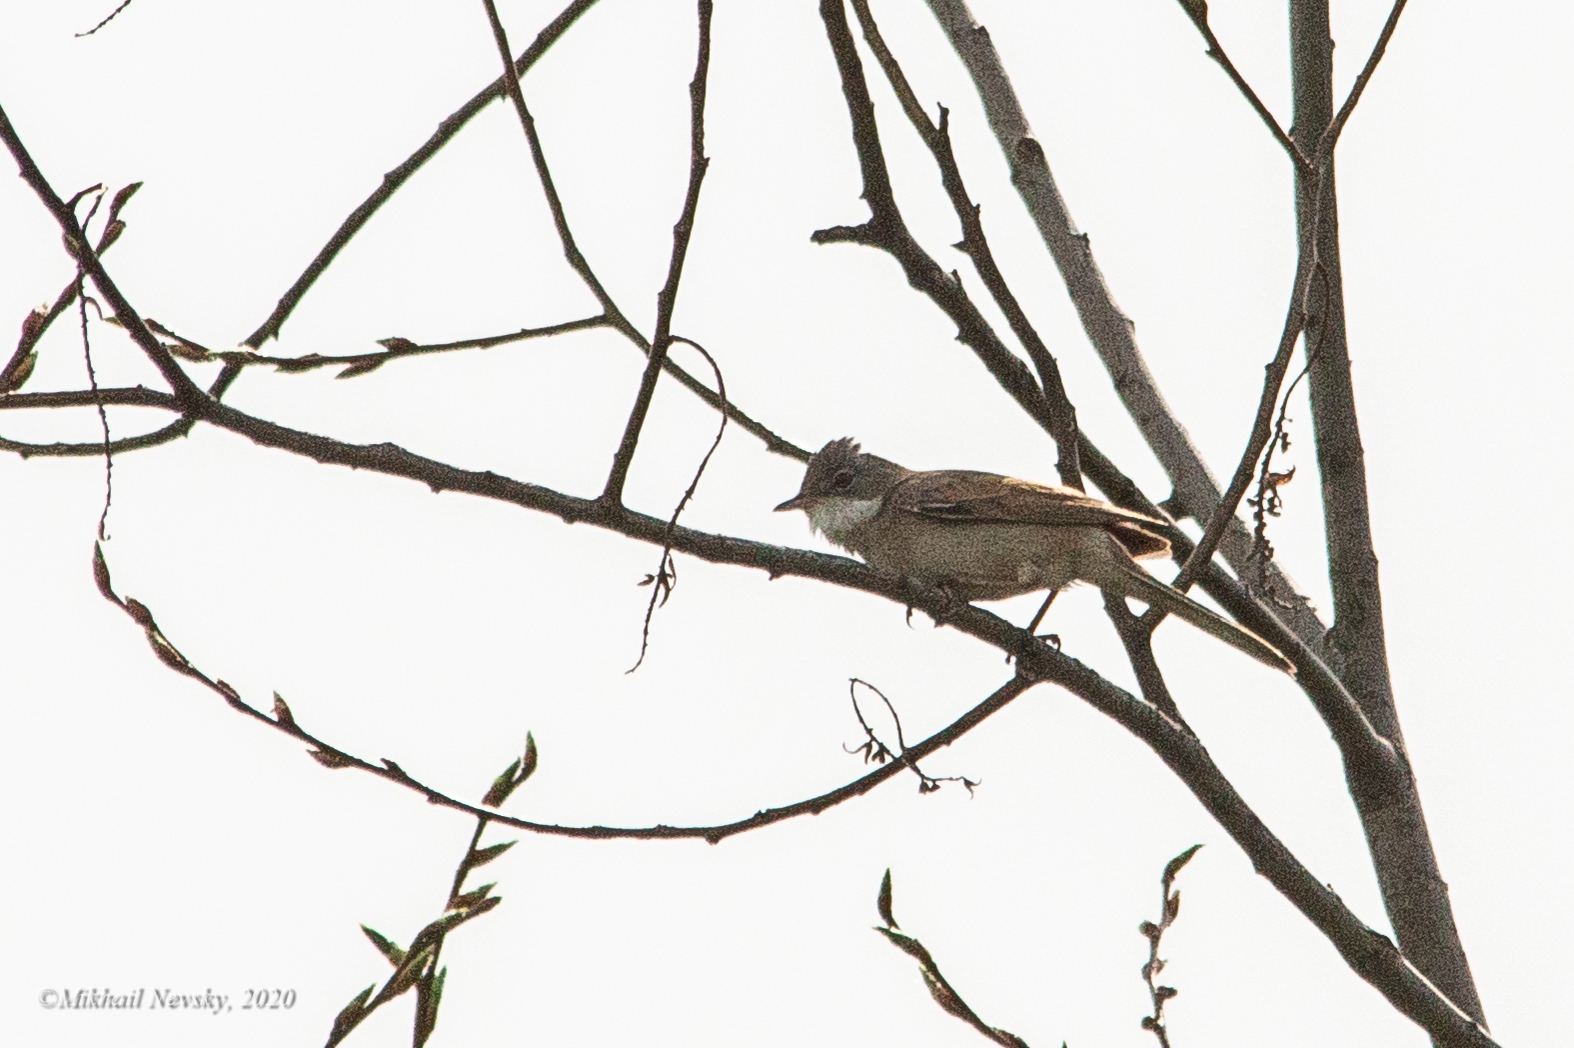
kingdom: Animalia
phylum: Chordata
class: Aves
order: Passeriformes
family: Sylviidae
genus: Sylvia
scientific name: Sylvia communis
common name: Common whitethroat
